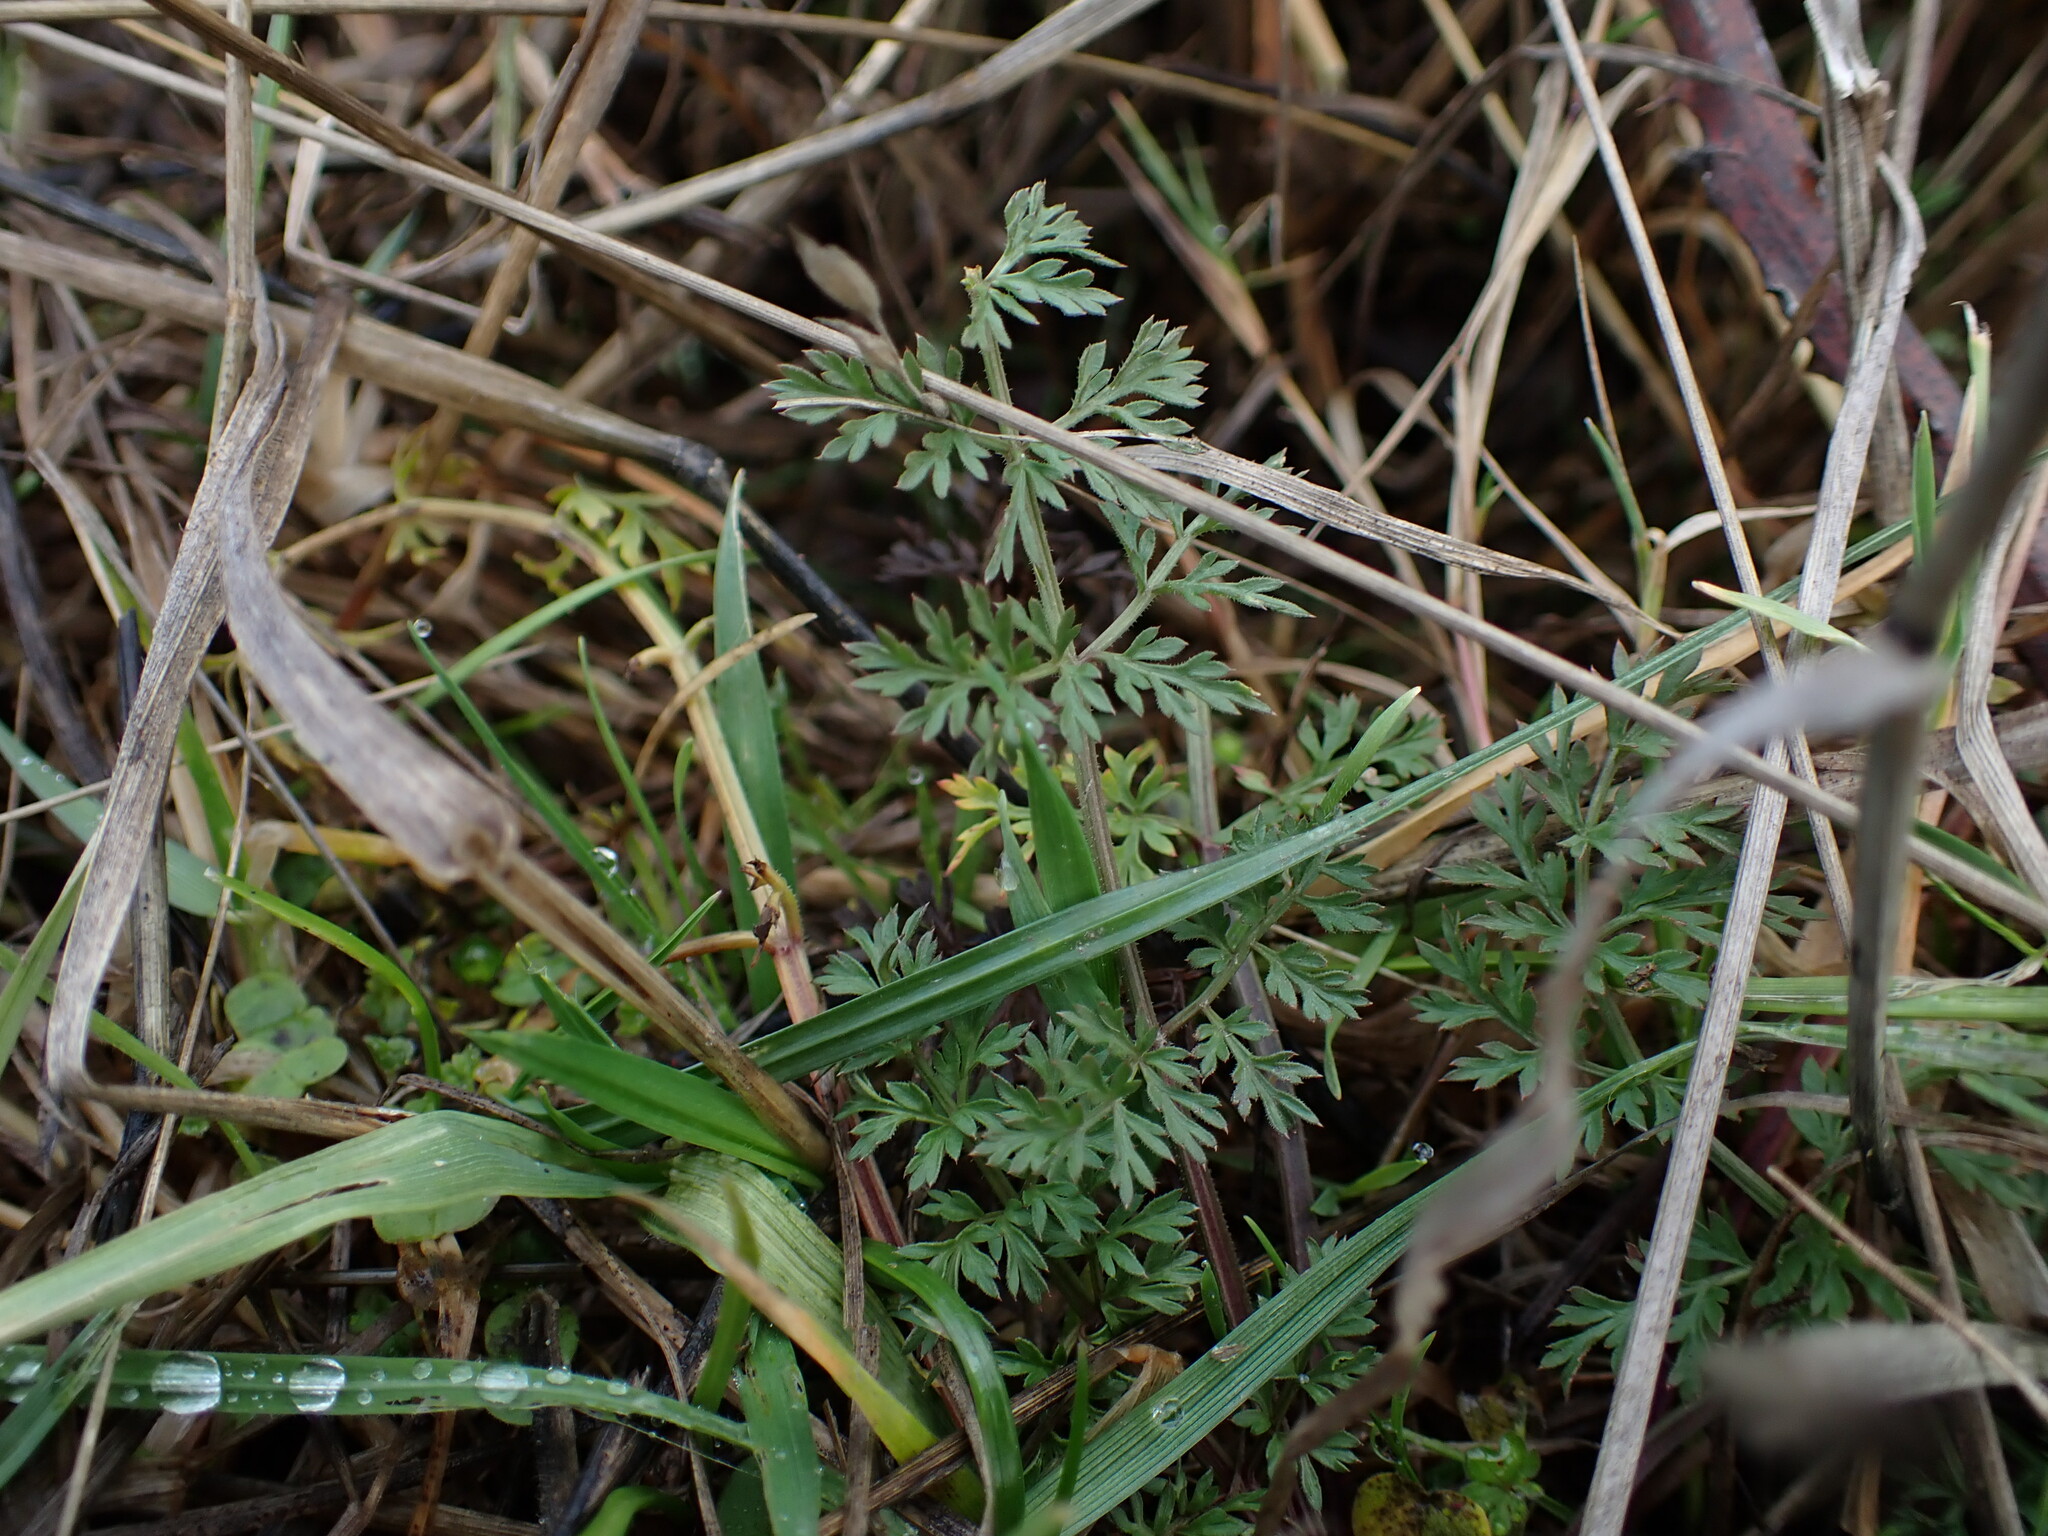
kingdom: Plantae
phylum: Tracheophyta
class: Magnoliopsida
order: Apiales
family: Apiaceae
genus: Daucus
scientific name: Daucus carota
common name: Wild carrot
